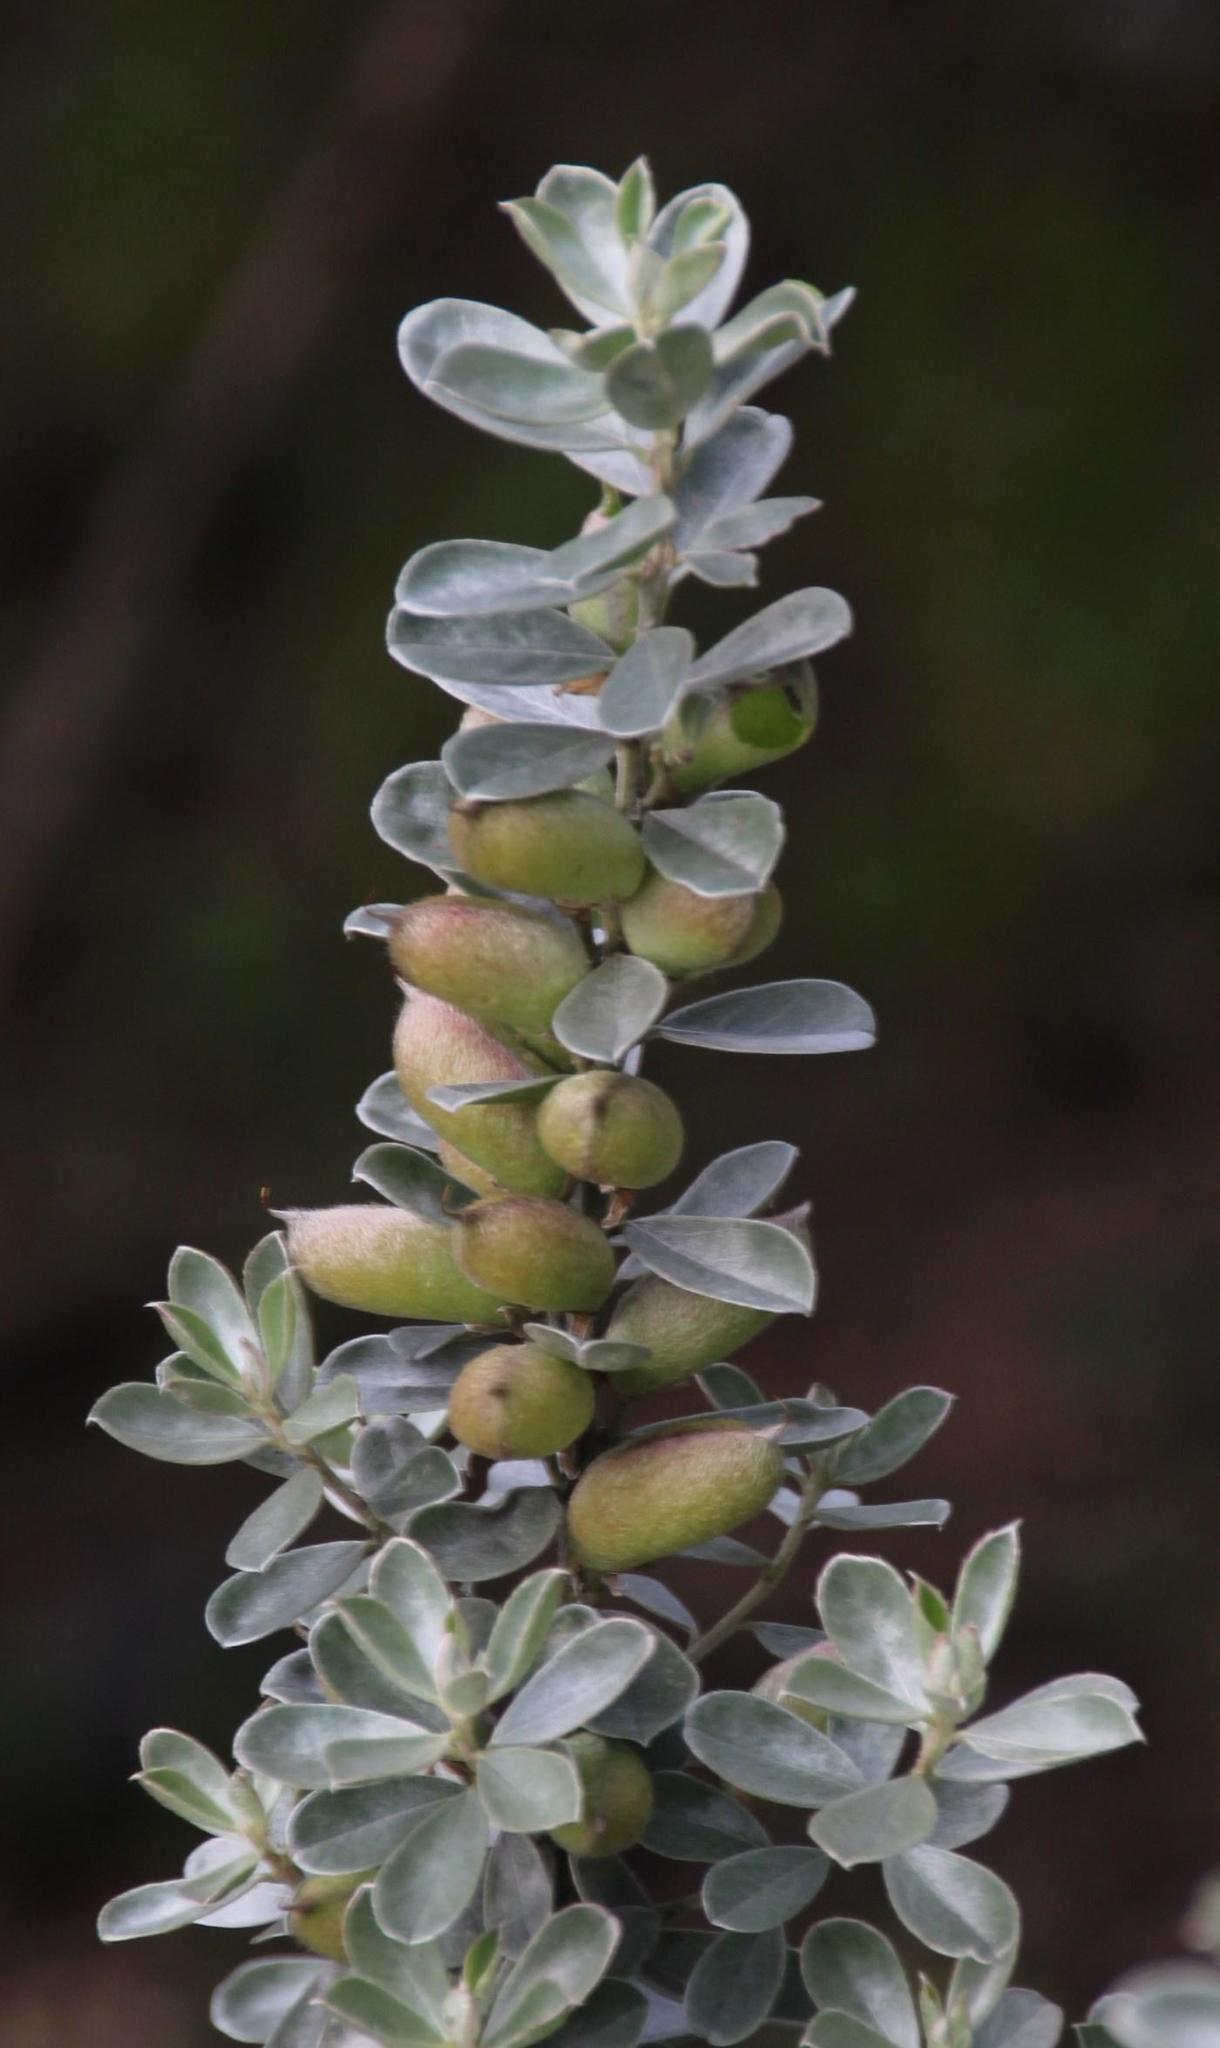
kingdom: Plantae
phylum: Tracheophyta
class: Magnoliopsida
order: Fabales
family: Fabaceae
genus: Podalyria
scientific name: Podalyria sericea
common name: Silver podalyria
